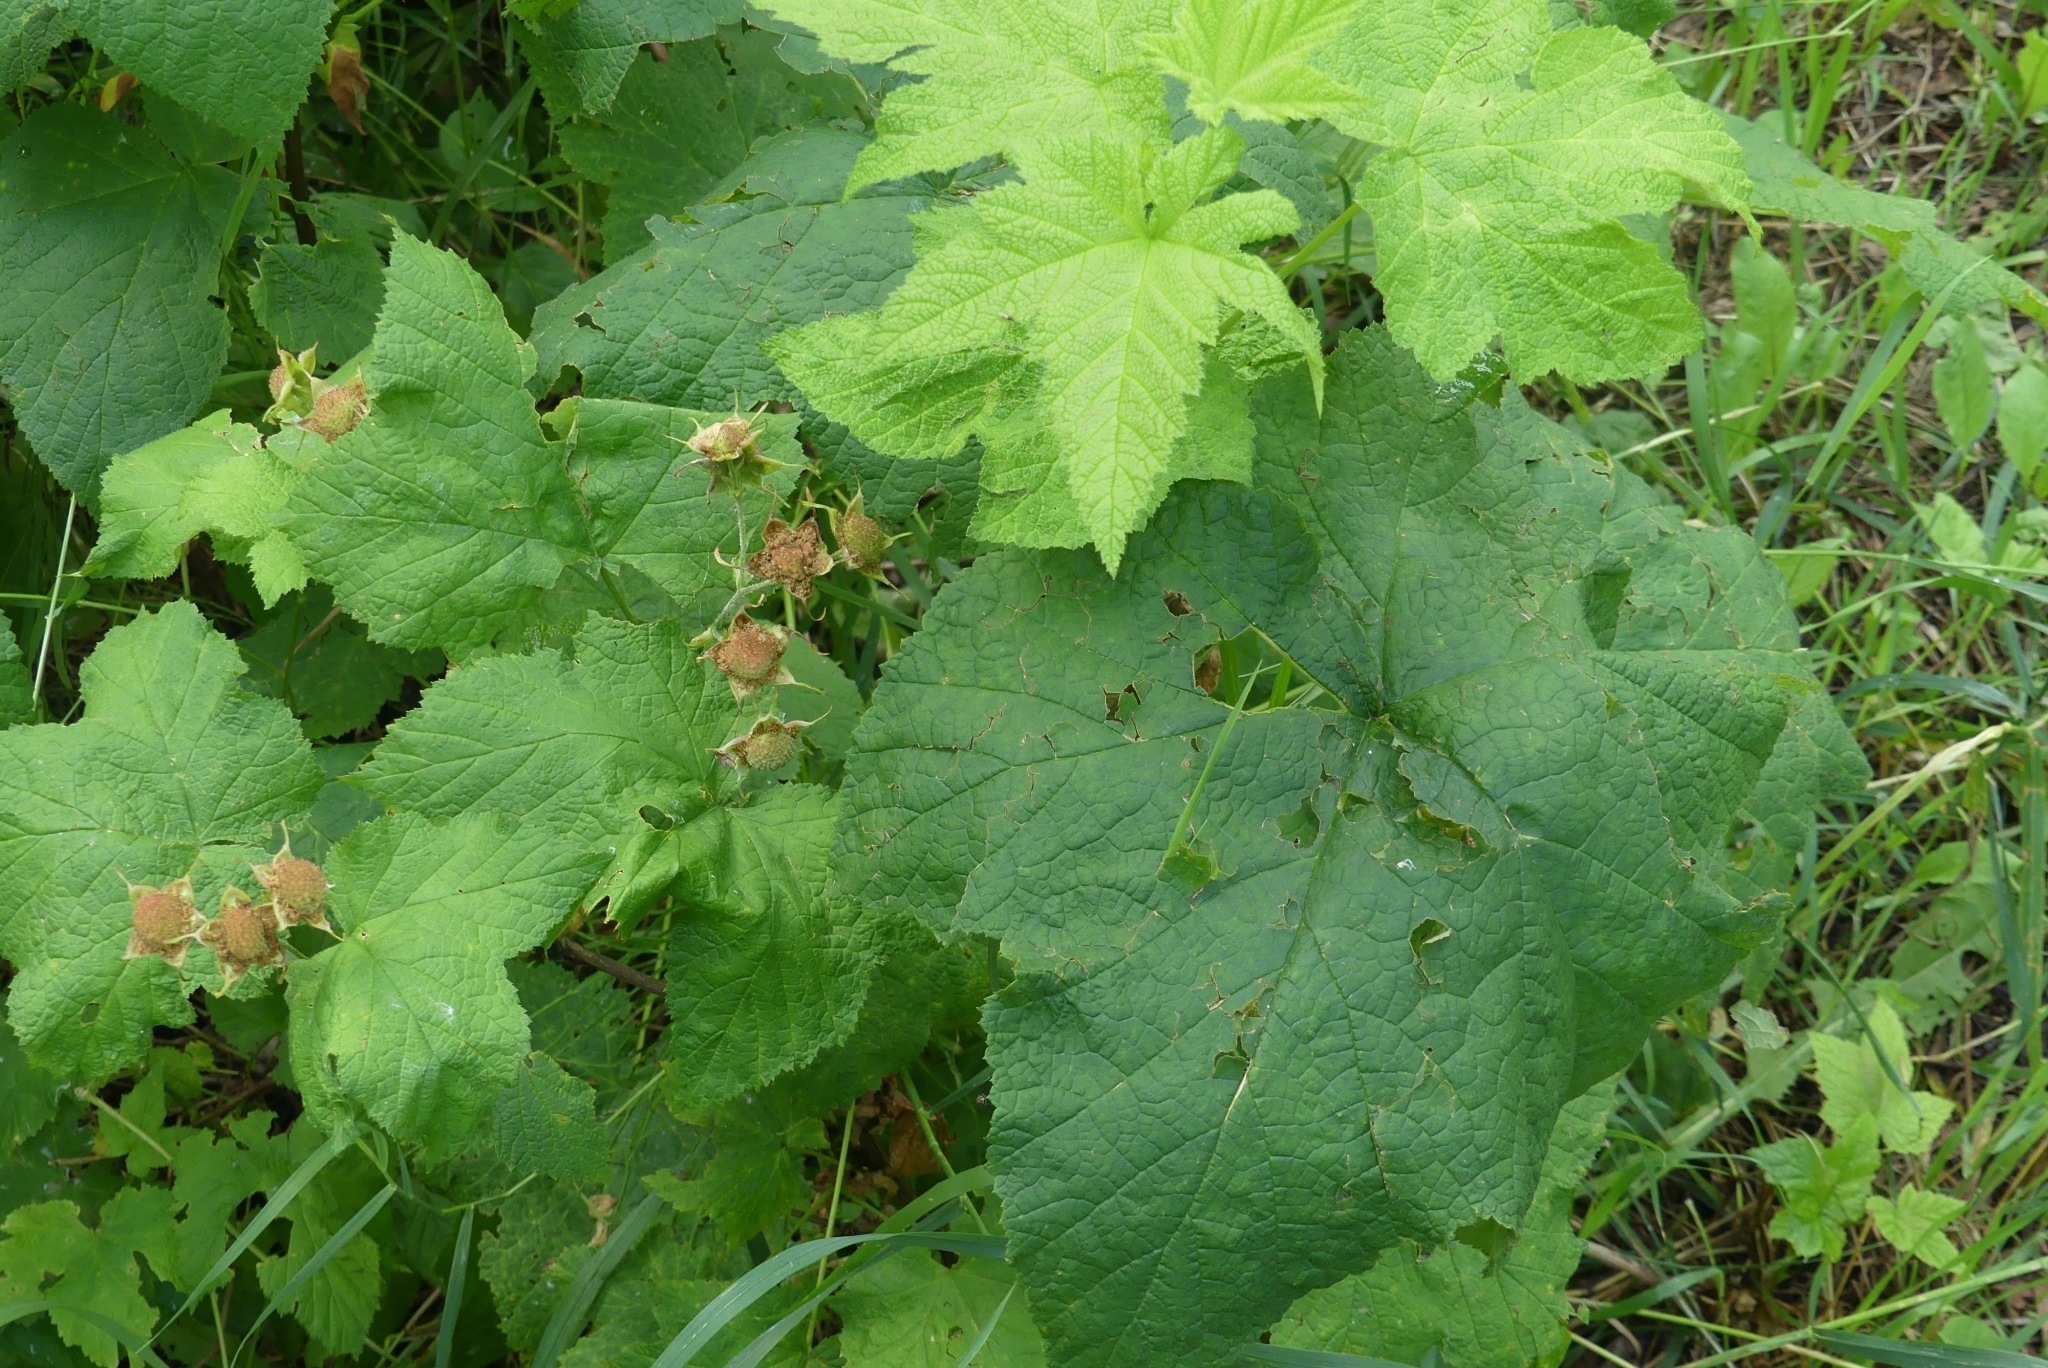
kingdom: Plantae
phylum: Tracheophyta
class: Magnoliopsida
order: Rosales
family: Rosaceae
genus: Rubus
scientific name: Rubus parviflorus
